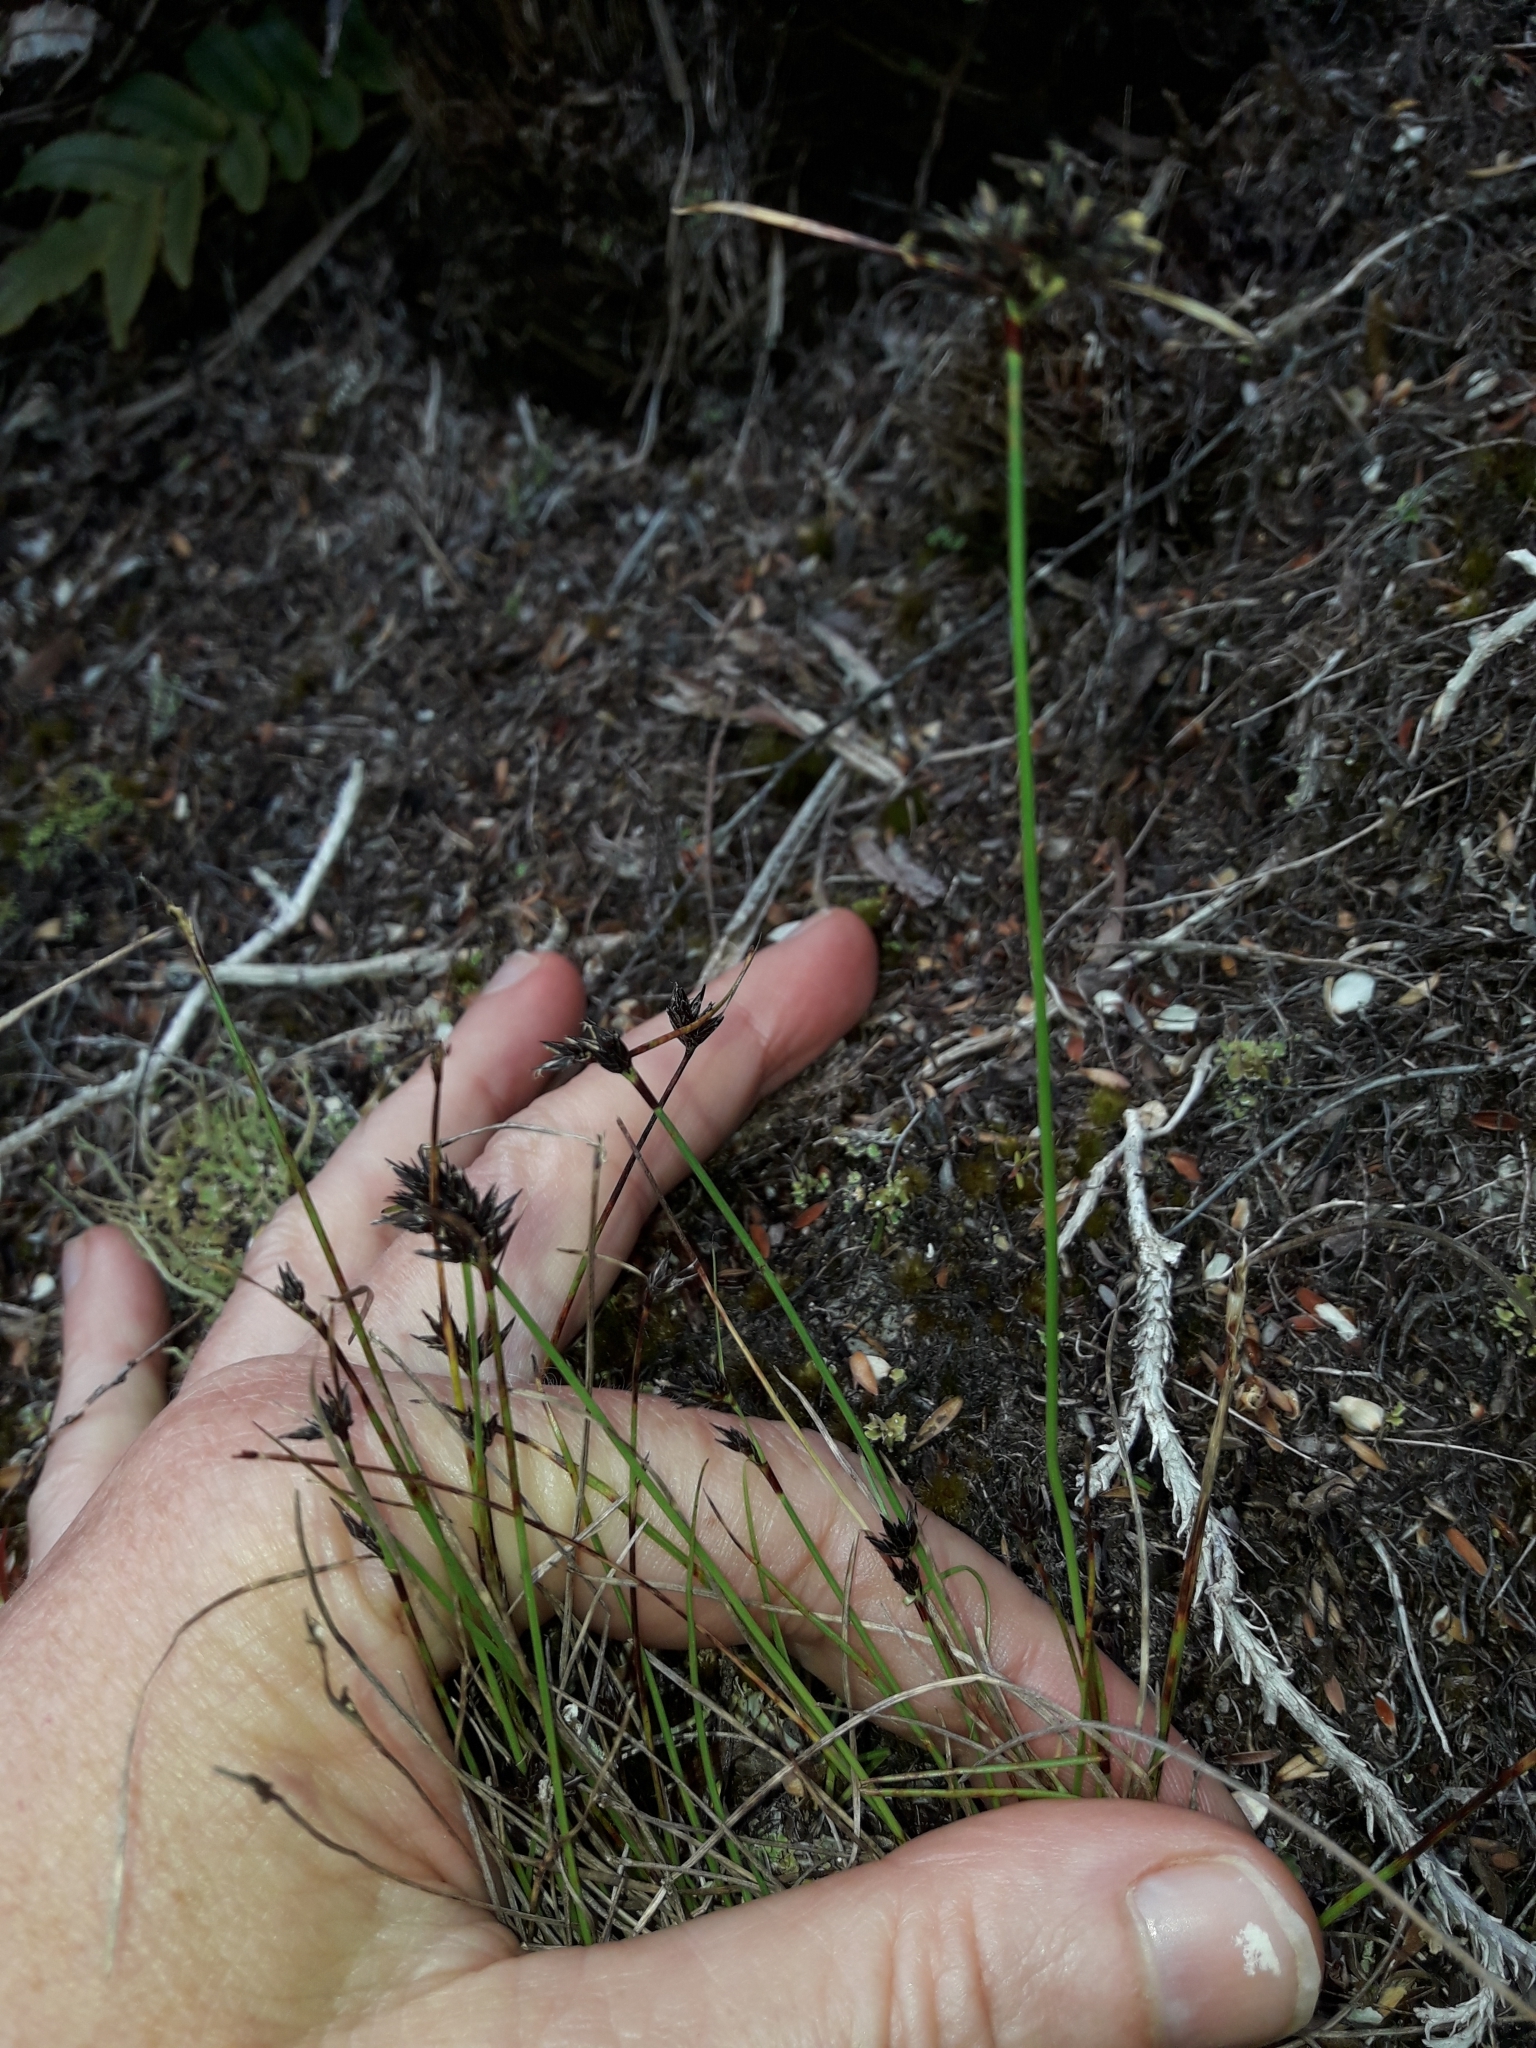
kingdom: Plantae
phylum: Tracheophyta
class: Liliopsida
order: Poales
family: Cyperaceae
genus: Schoenus
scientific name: Schoenus apogon
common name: Smooth bogrush
